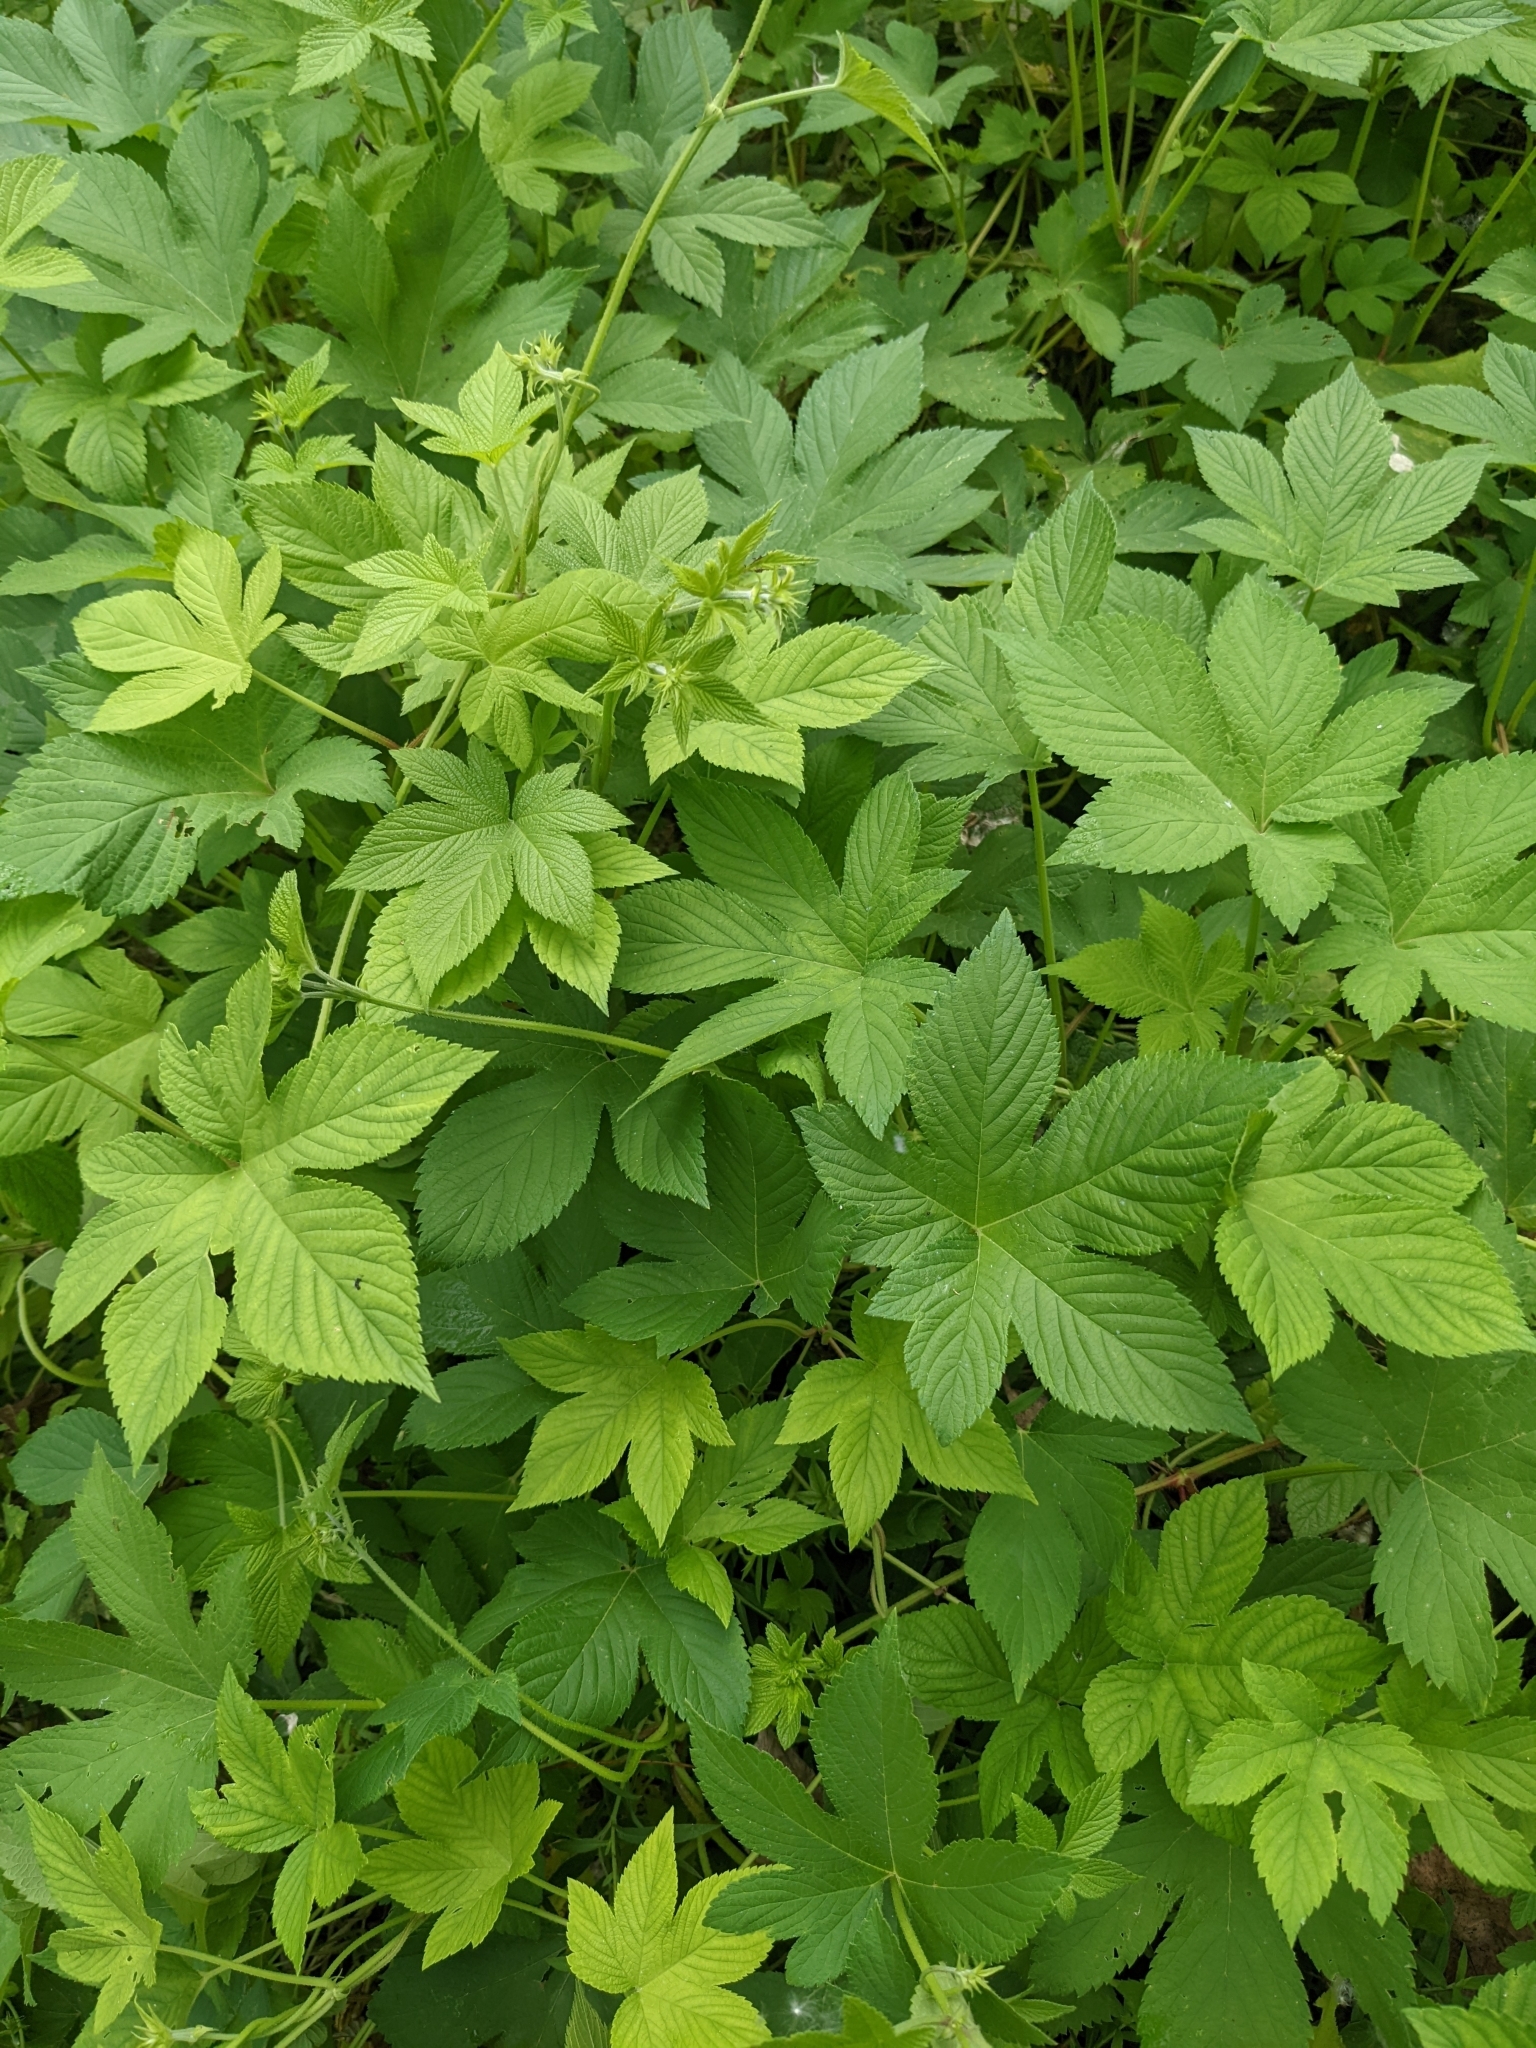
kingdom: Plantae
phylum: Tracheophyta
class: Magnoliopsida
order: Rosales
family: Cannabaceae
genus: Humulus
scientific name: Humulus scandens
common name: Japanese hop
